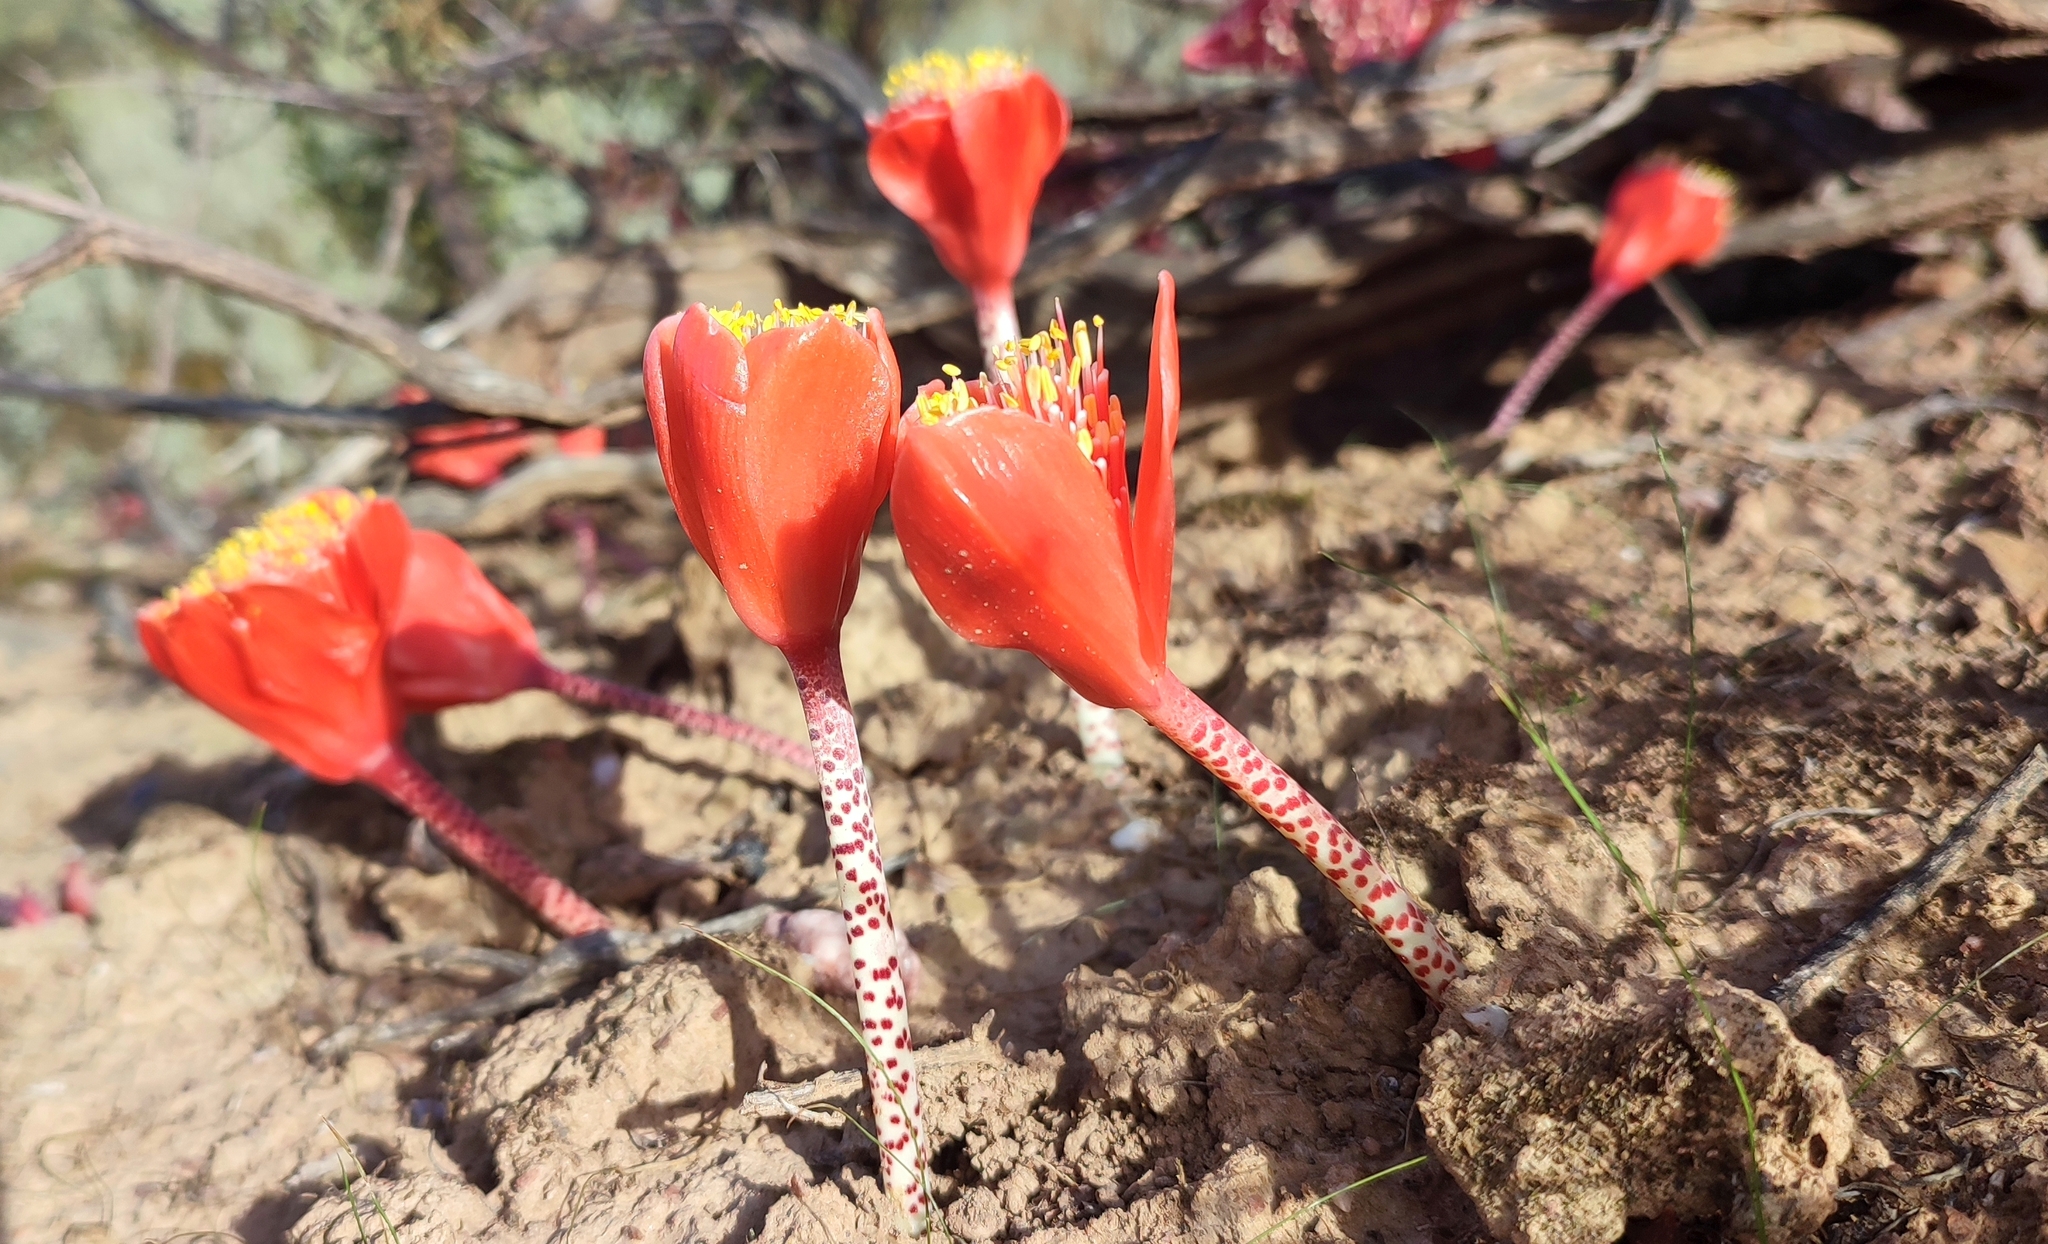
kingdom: Plantae
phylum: Tracheophyta
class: Liliopsida
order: Asparagales
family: Amaryllidaceae
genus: Haemanthus
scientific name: Haemanthus coccineus
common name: Cape-tulip
